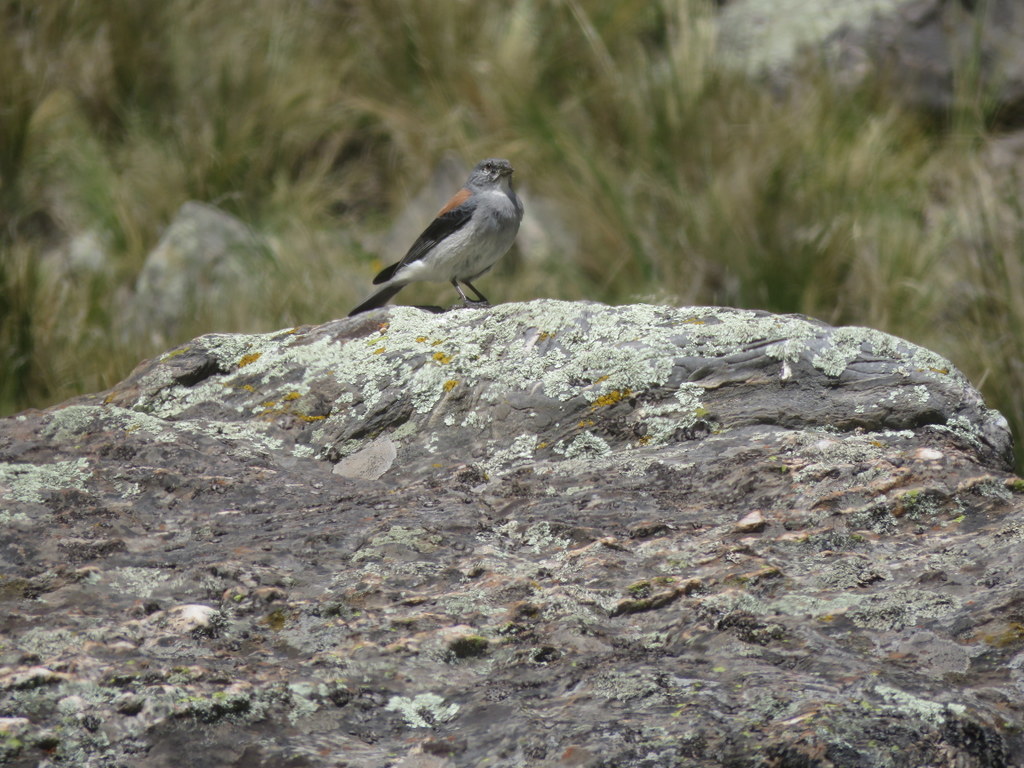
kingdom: Animalia
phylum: Chordata
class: Aves
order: Passeriformes
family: Thraupidae
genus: Idiopsar
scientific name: Idiopsar dorsalis
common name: Red-backed sierra finch
